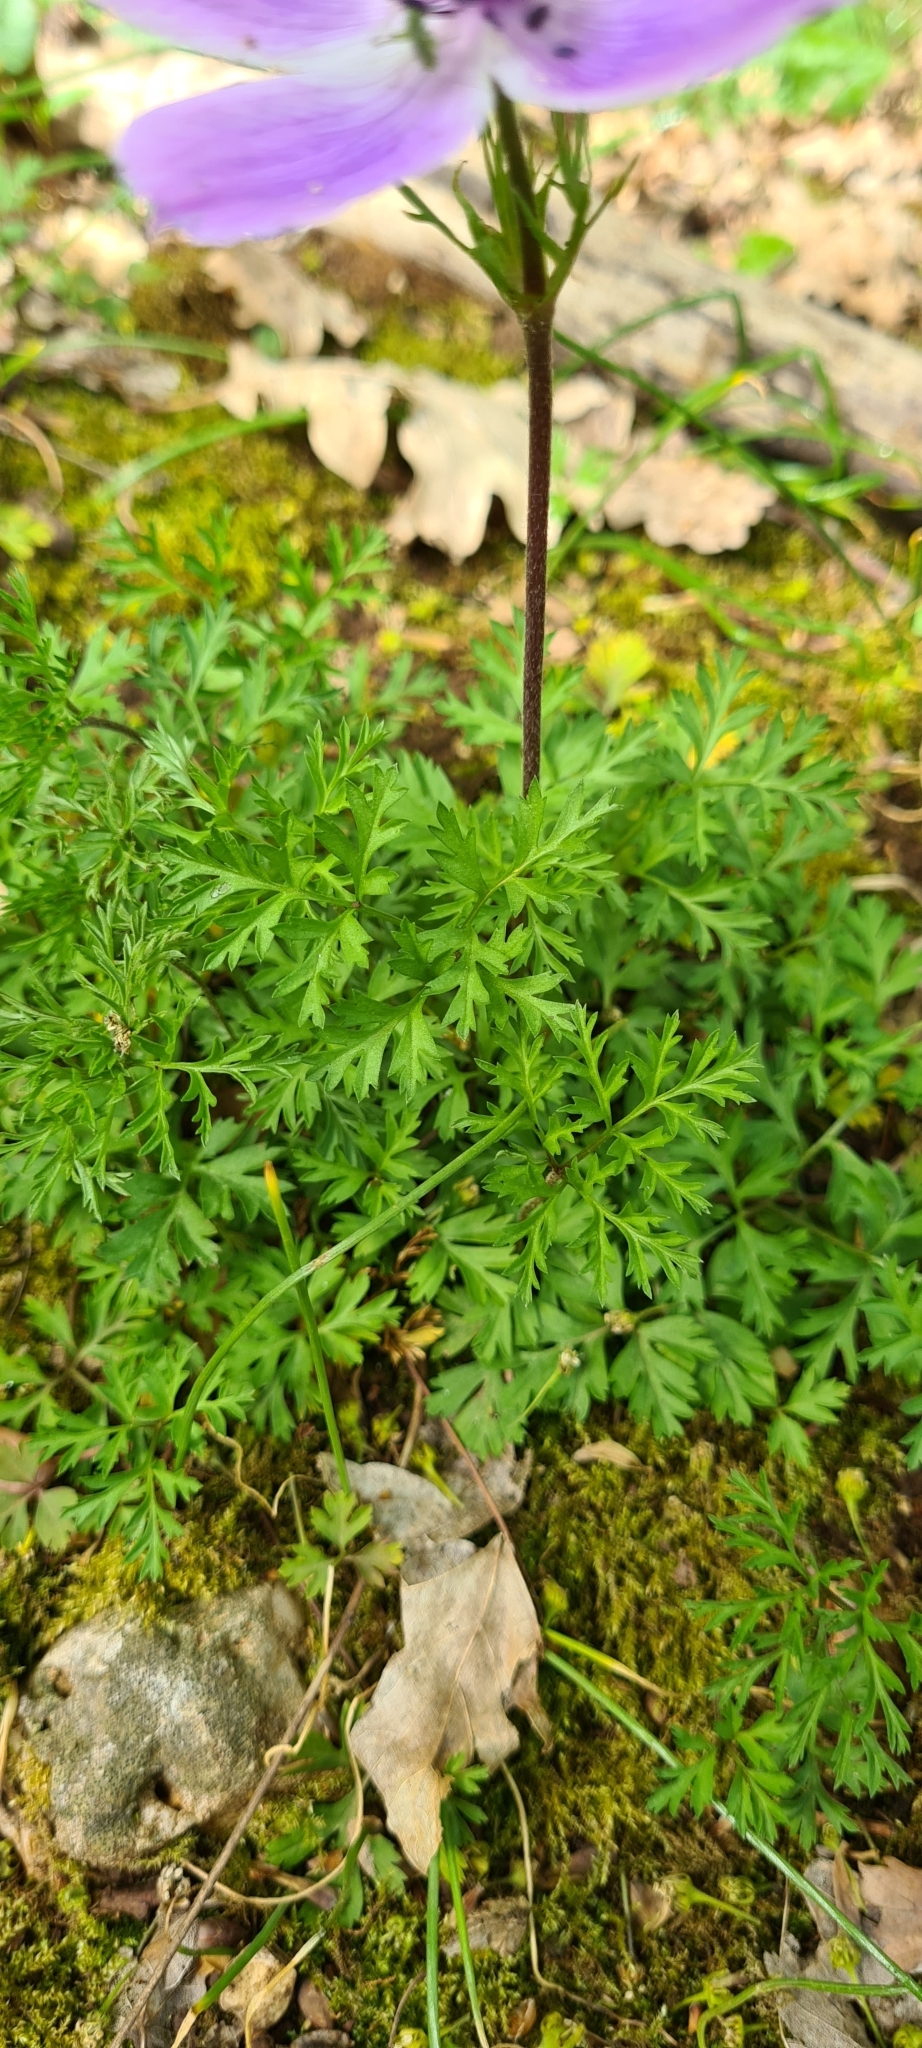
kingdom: Plantae
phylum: Tracheophyta
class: Magnoliopsida
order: Ranunculales
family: Ranunculaceae
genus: Anemone
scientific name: Anemone coronaria
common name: Poppy anemone
